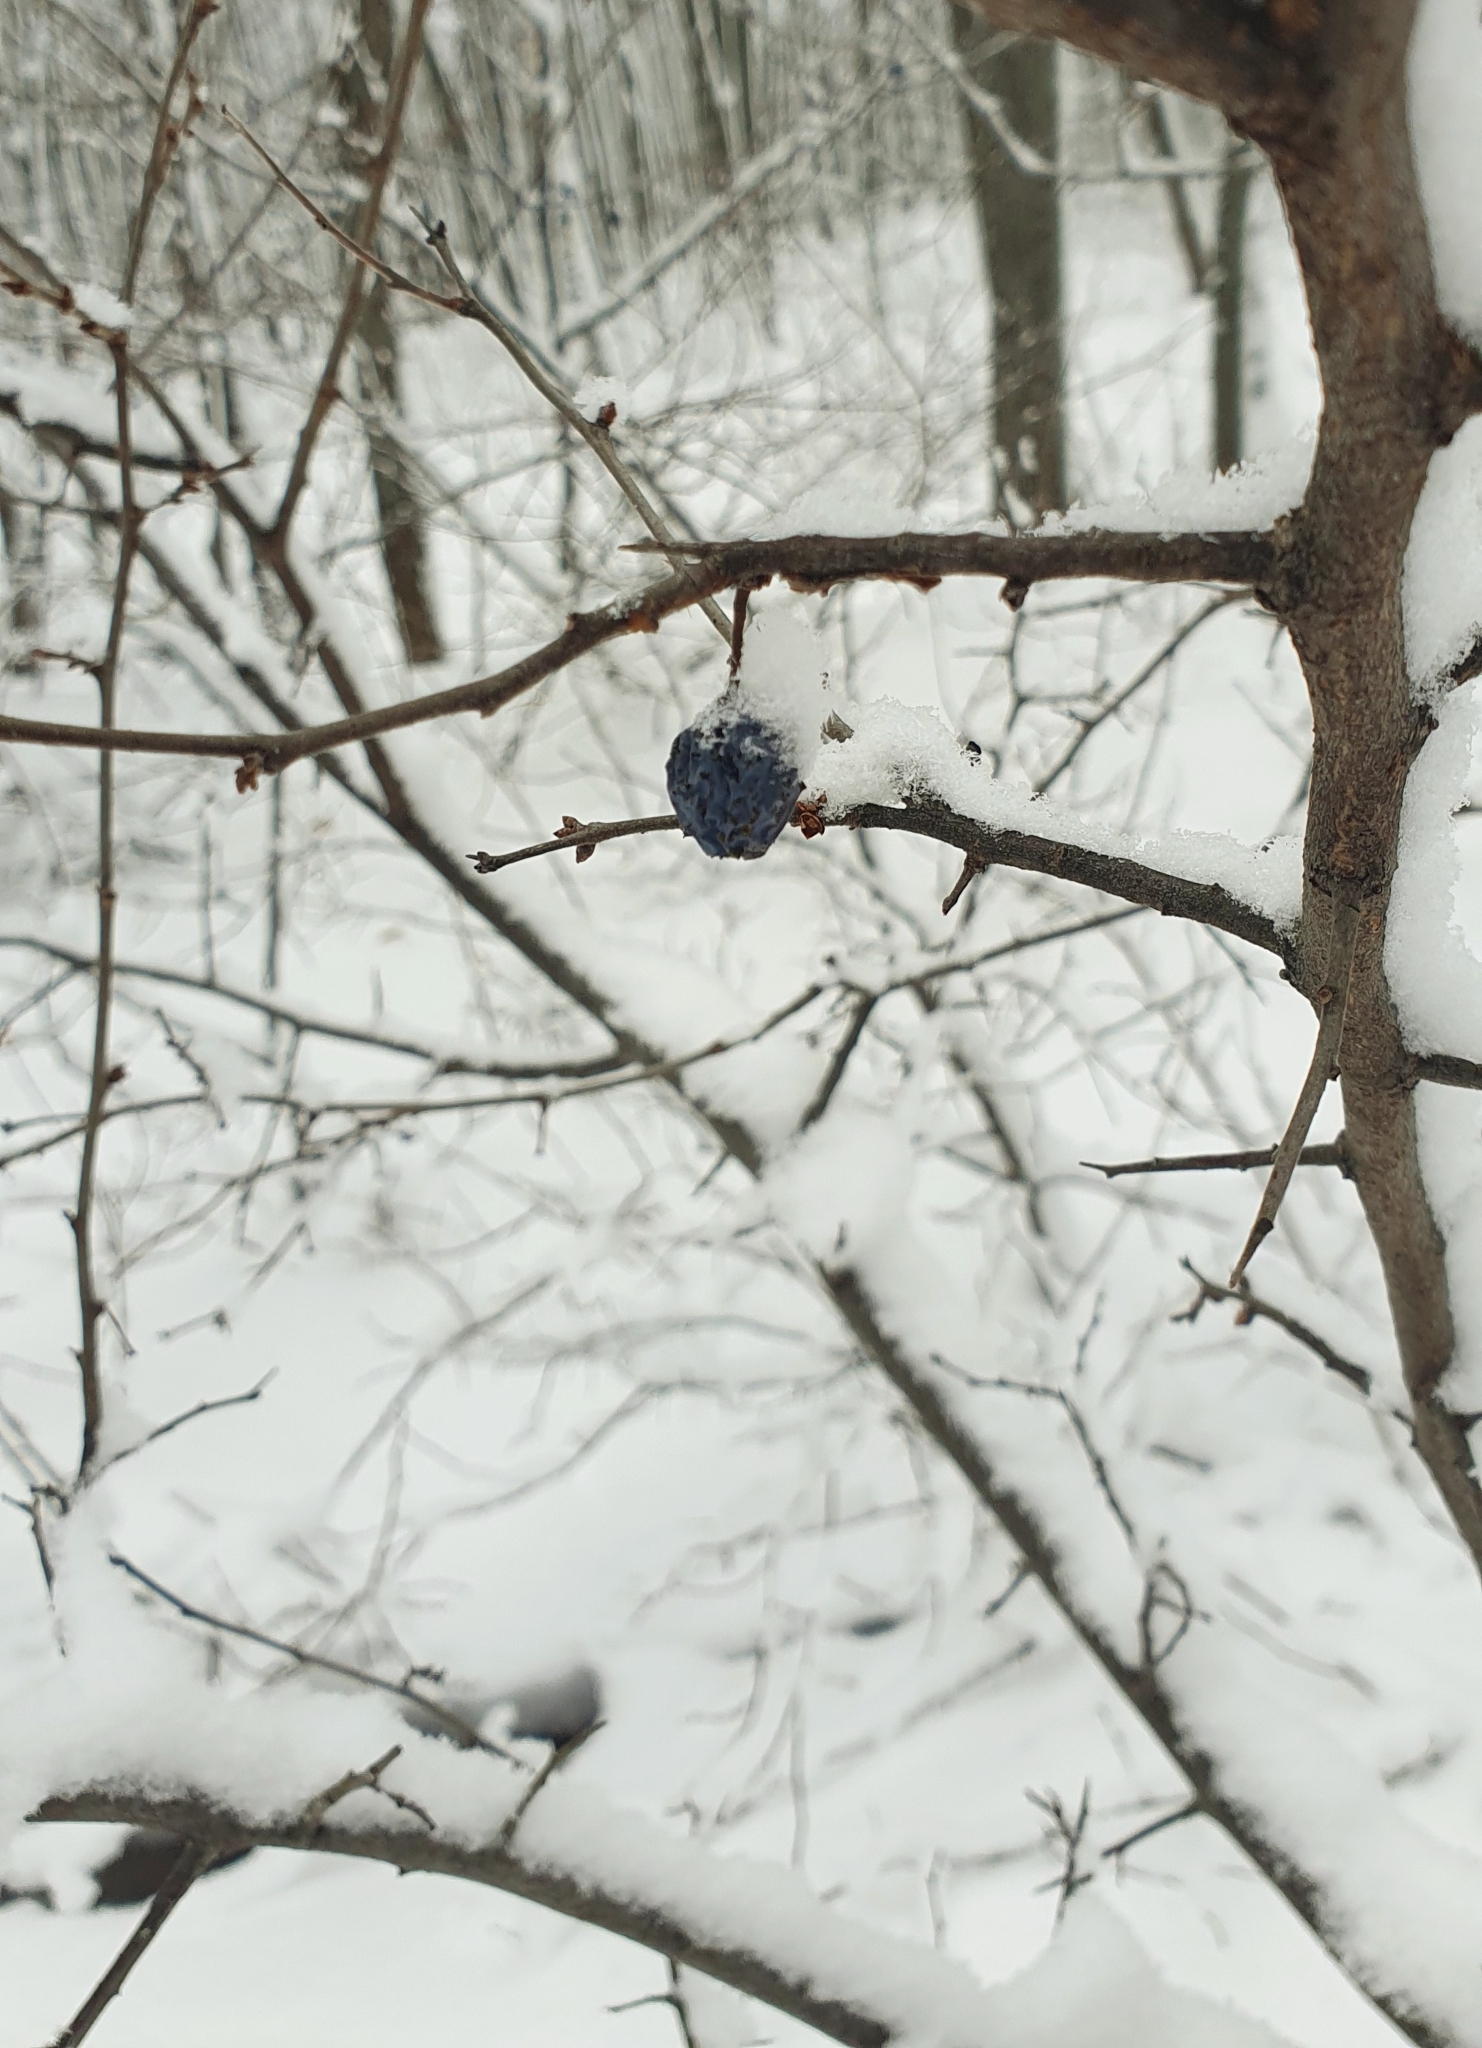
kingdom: Plantae
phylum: Tracheophyta
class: Magnoliopsida
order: Rosales
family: Rosaceae
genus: Prunus
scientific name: Prunus spinosa
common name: Blackthorn
